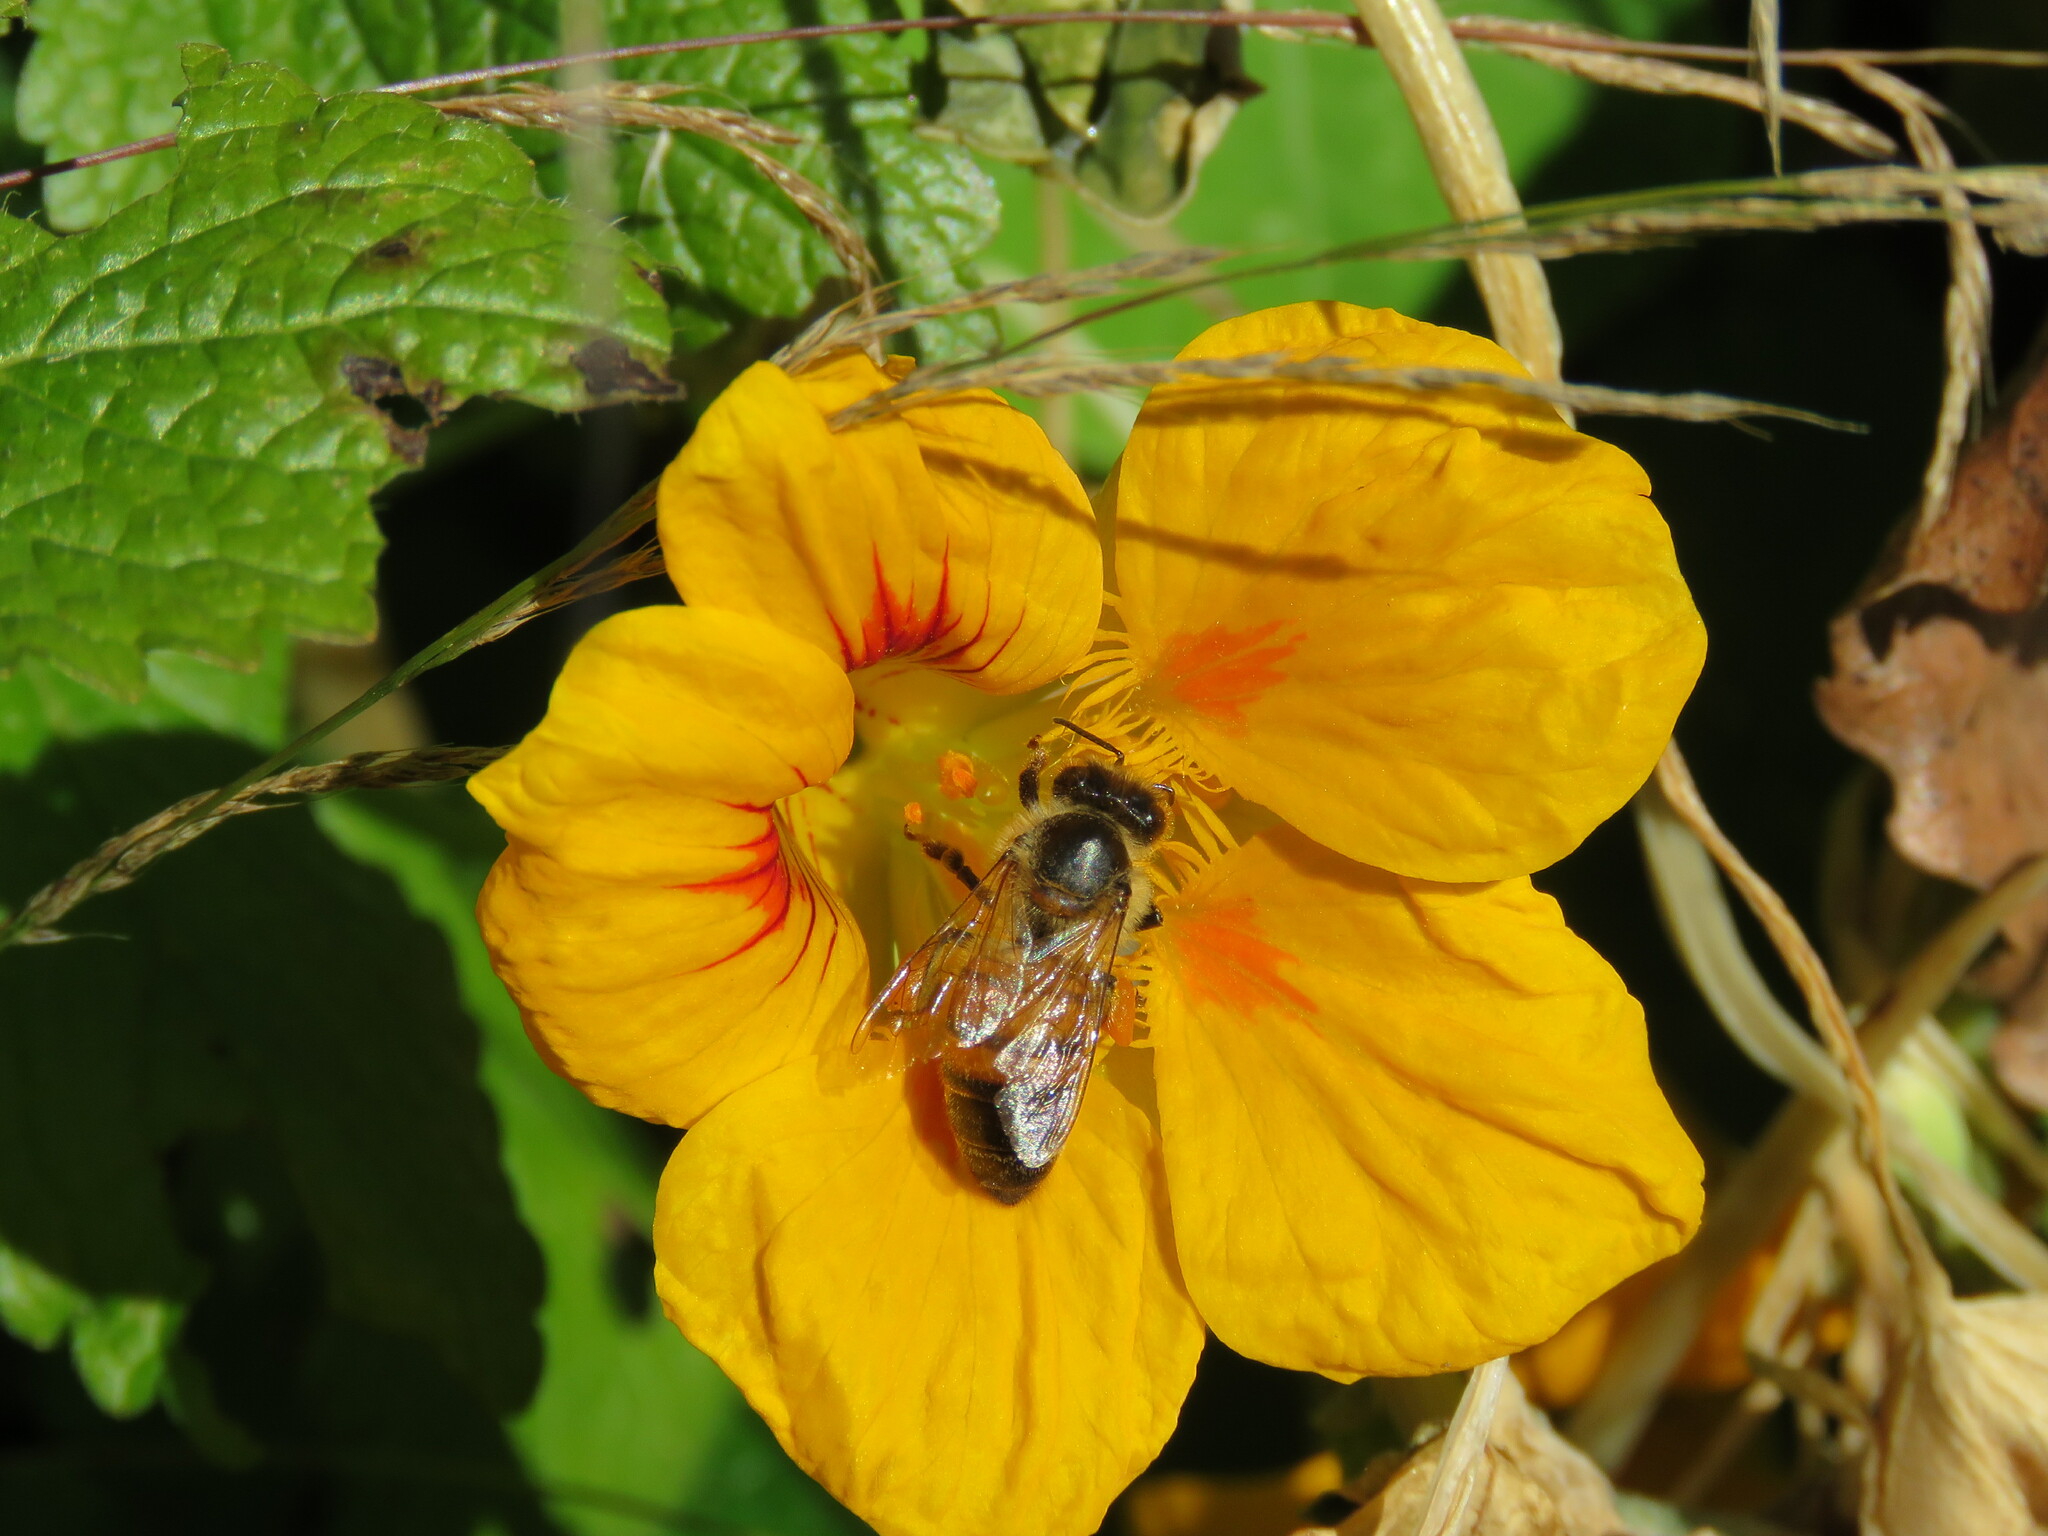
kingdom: Animalia
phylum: Arthropoda
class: Insecta
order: Hymenoptera
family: Apidae
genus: Apis
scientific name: Apis mellifera
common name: Honey bee
